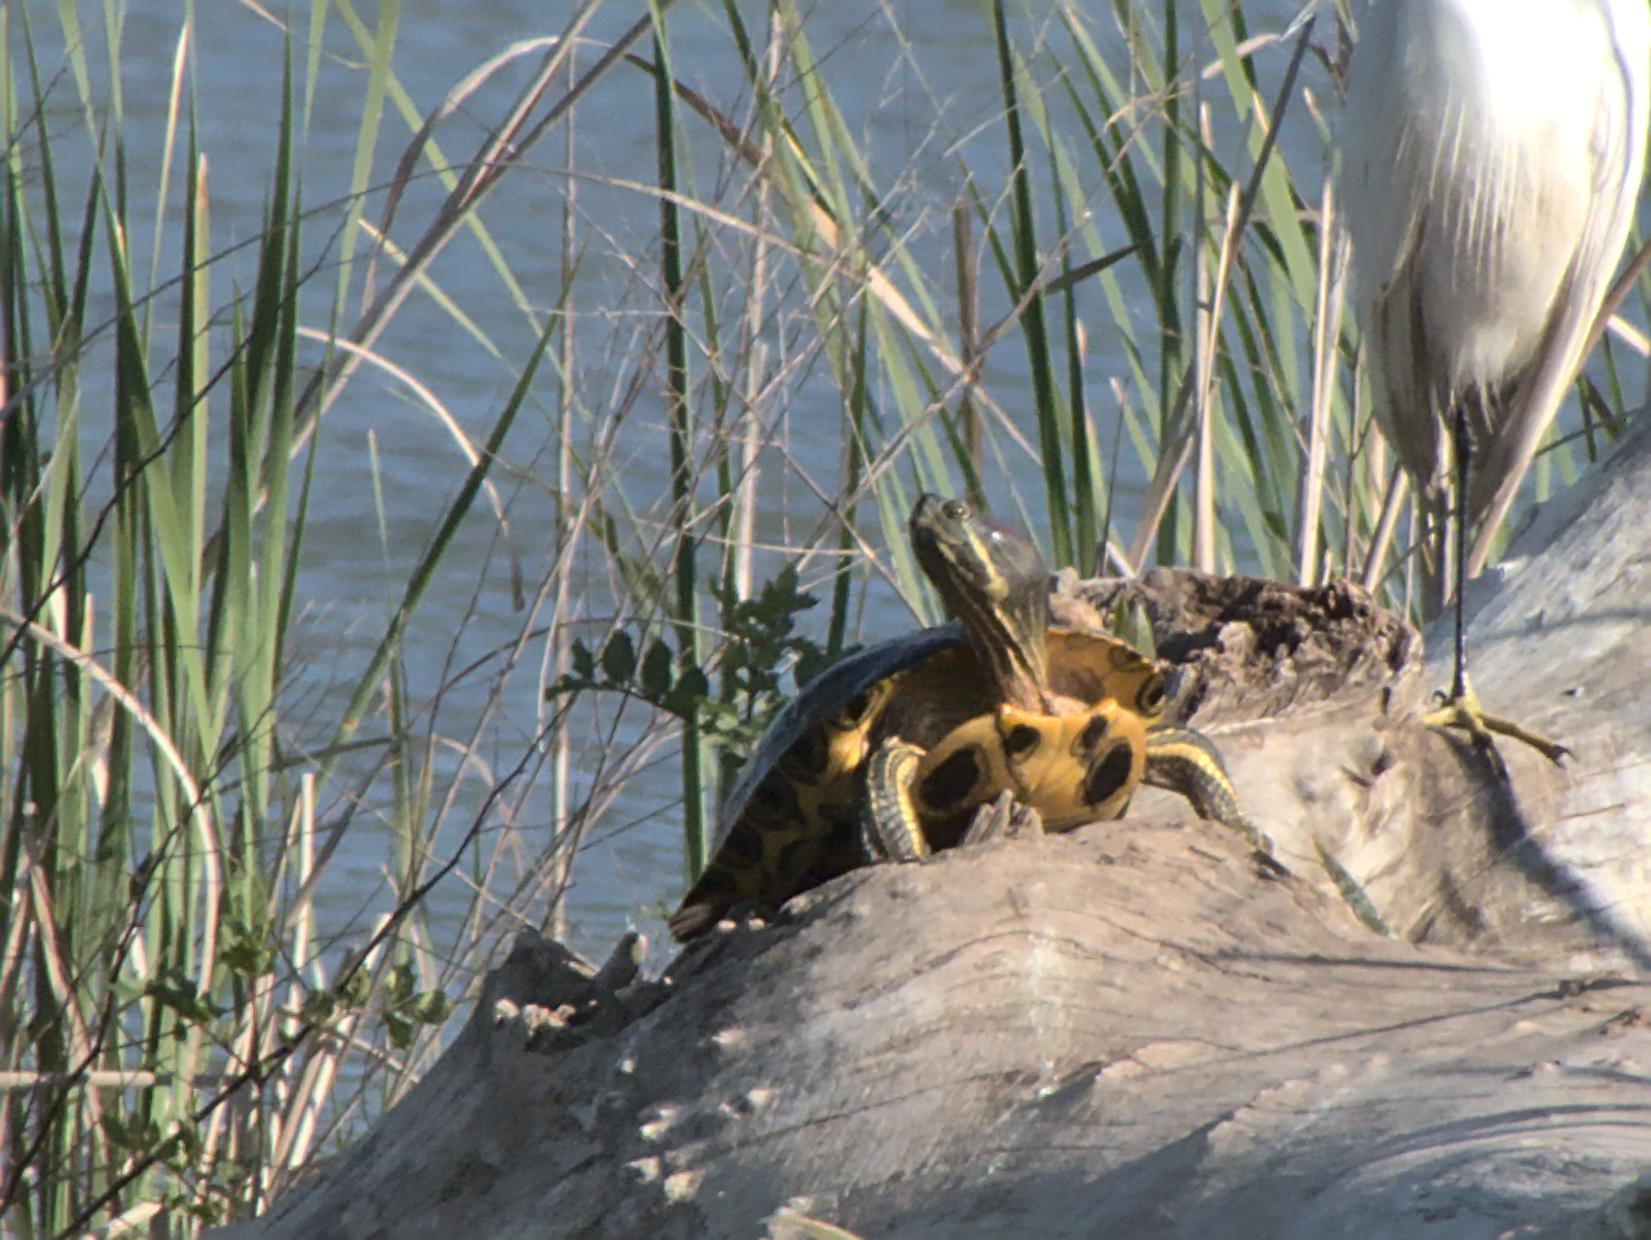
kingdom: Animalia
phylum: Chordata
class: Testudines
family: Emydidae
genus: Trachemys
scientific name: Trachemys scripta
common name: Slider
